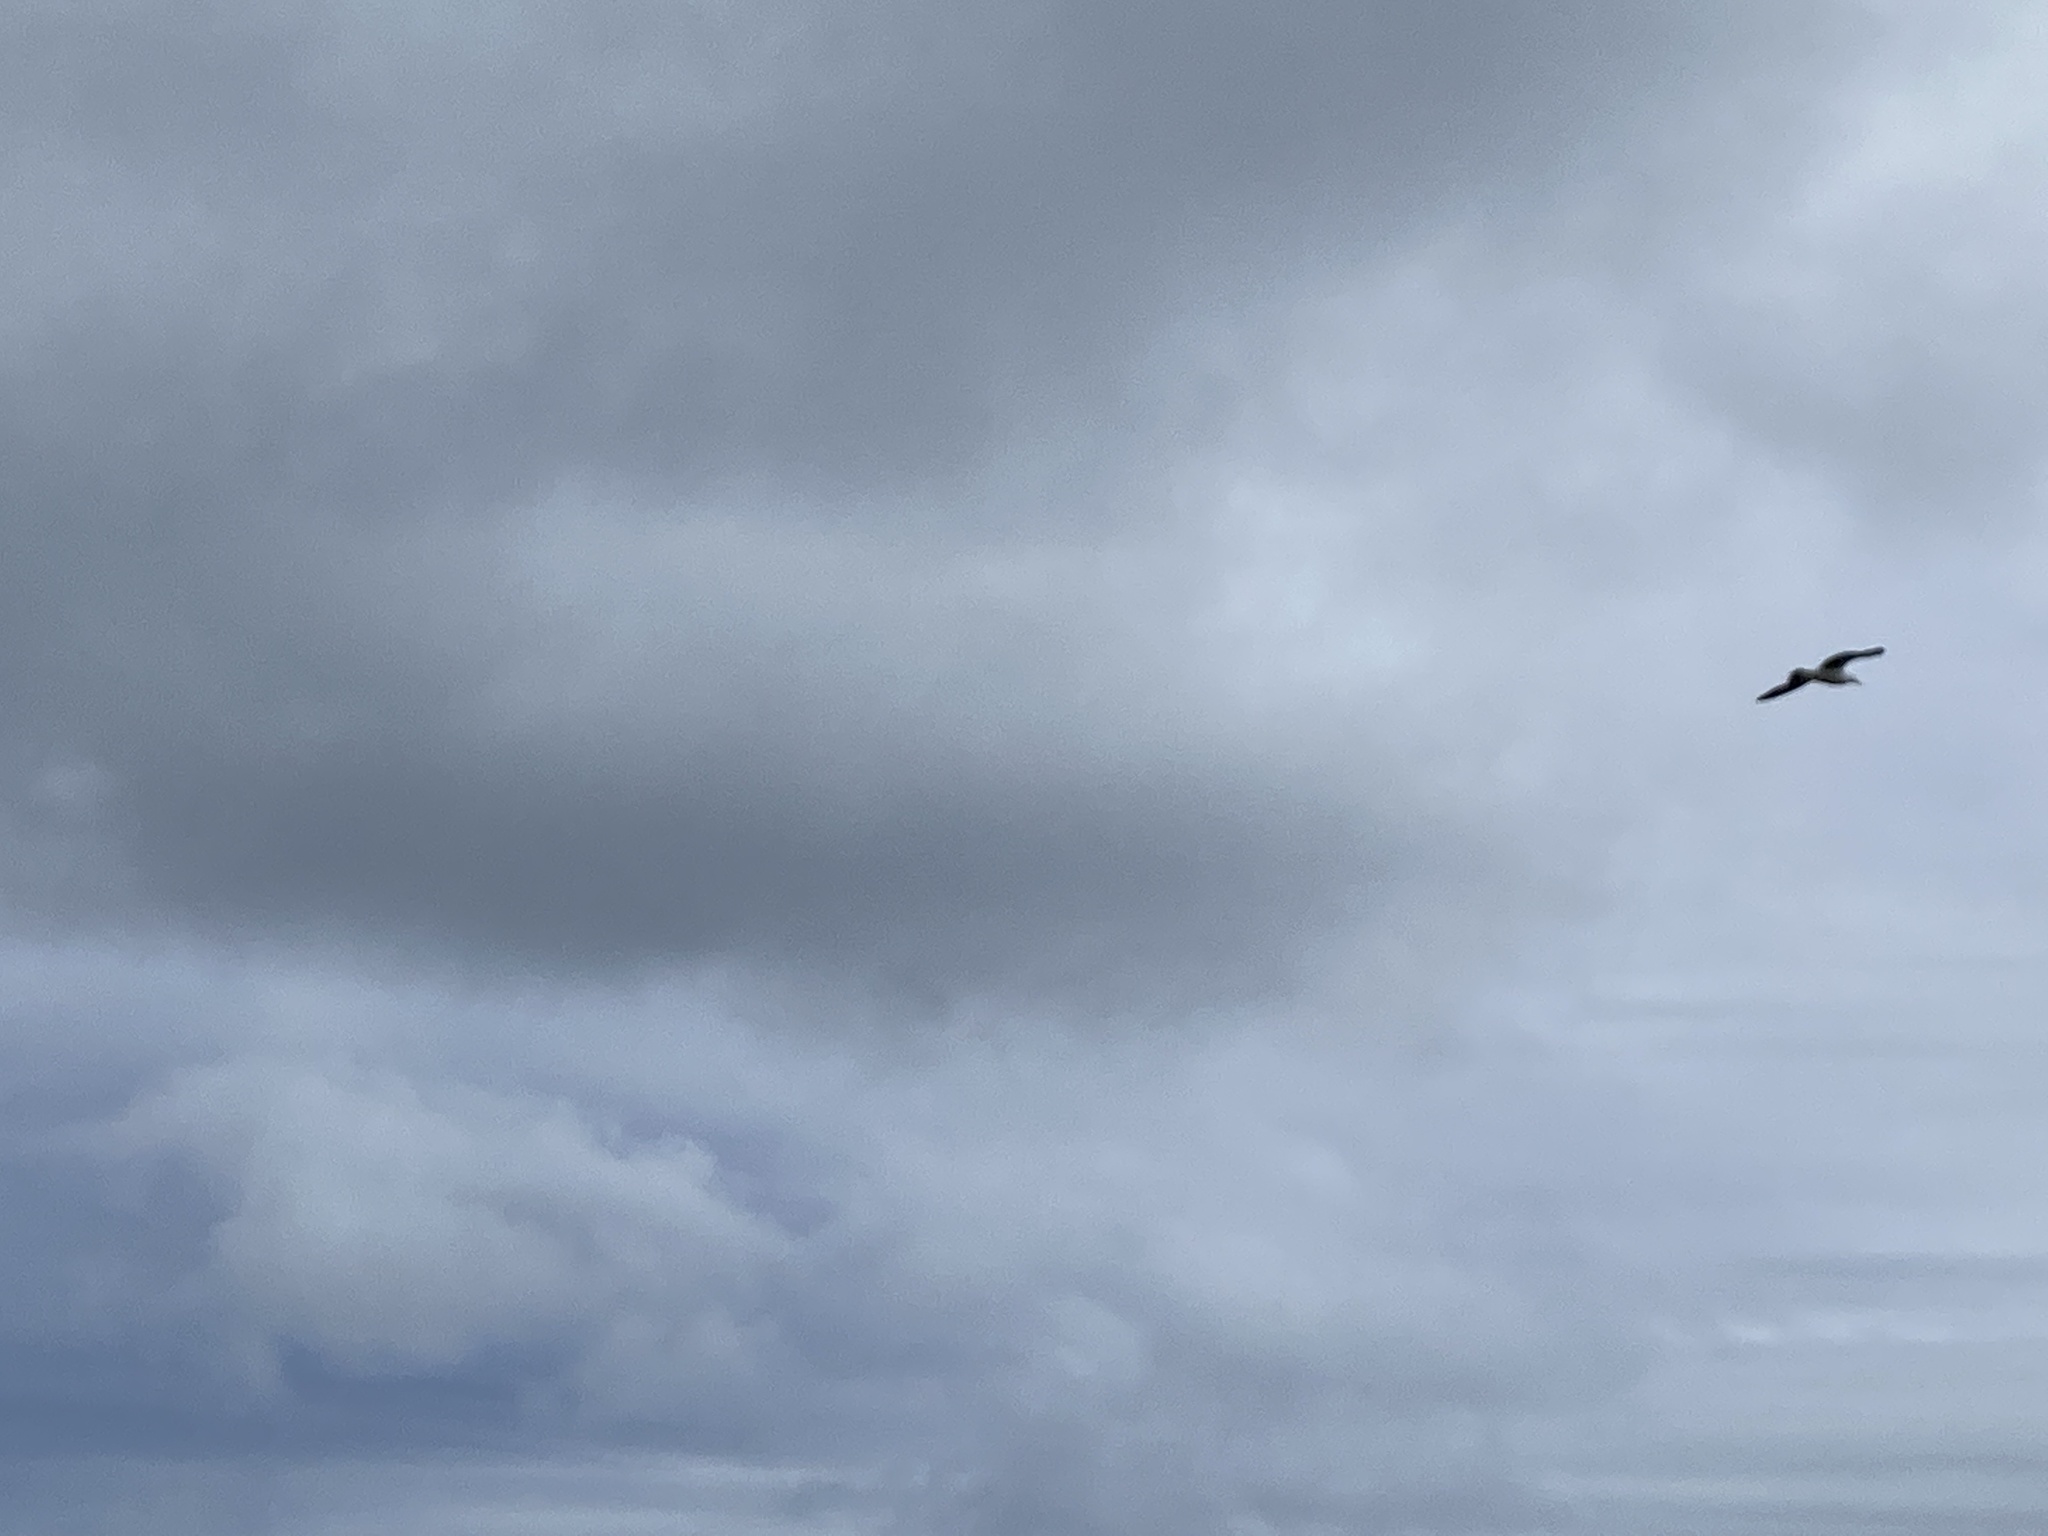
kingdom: Animalia
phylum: Chordata
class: Aves
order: Charadriiformes
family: Laridae
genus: Larus
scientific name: Larus dominicanus
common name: Kelp gull
